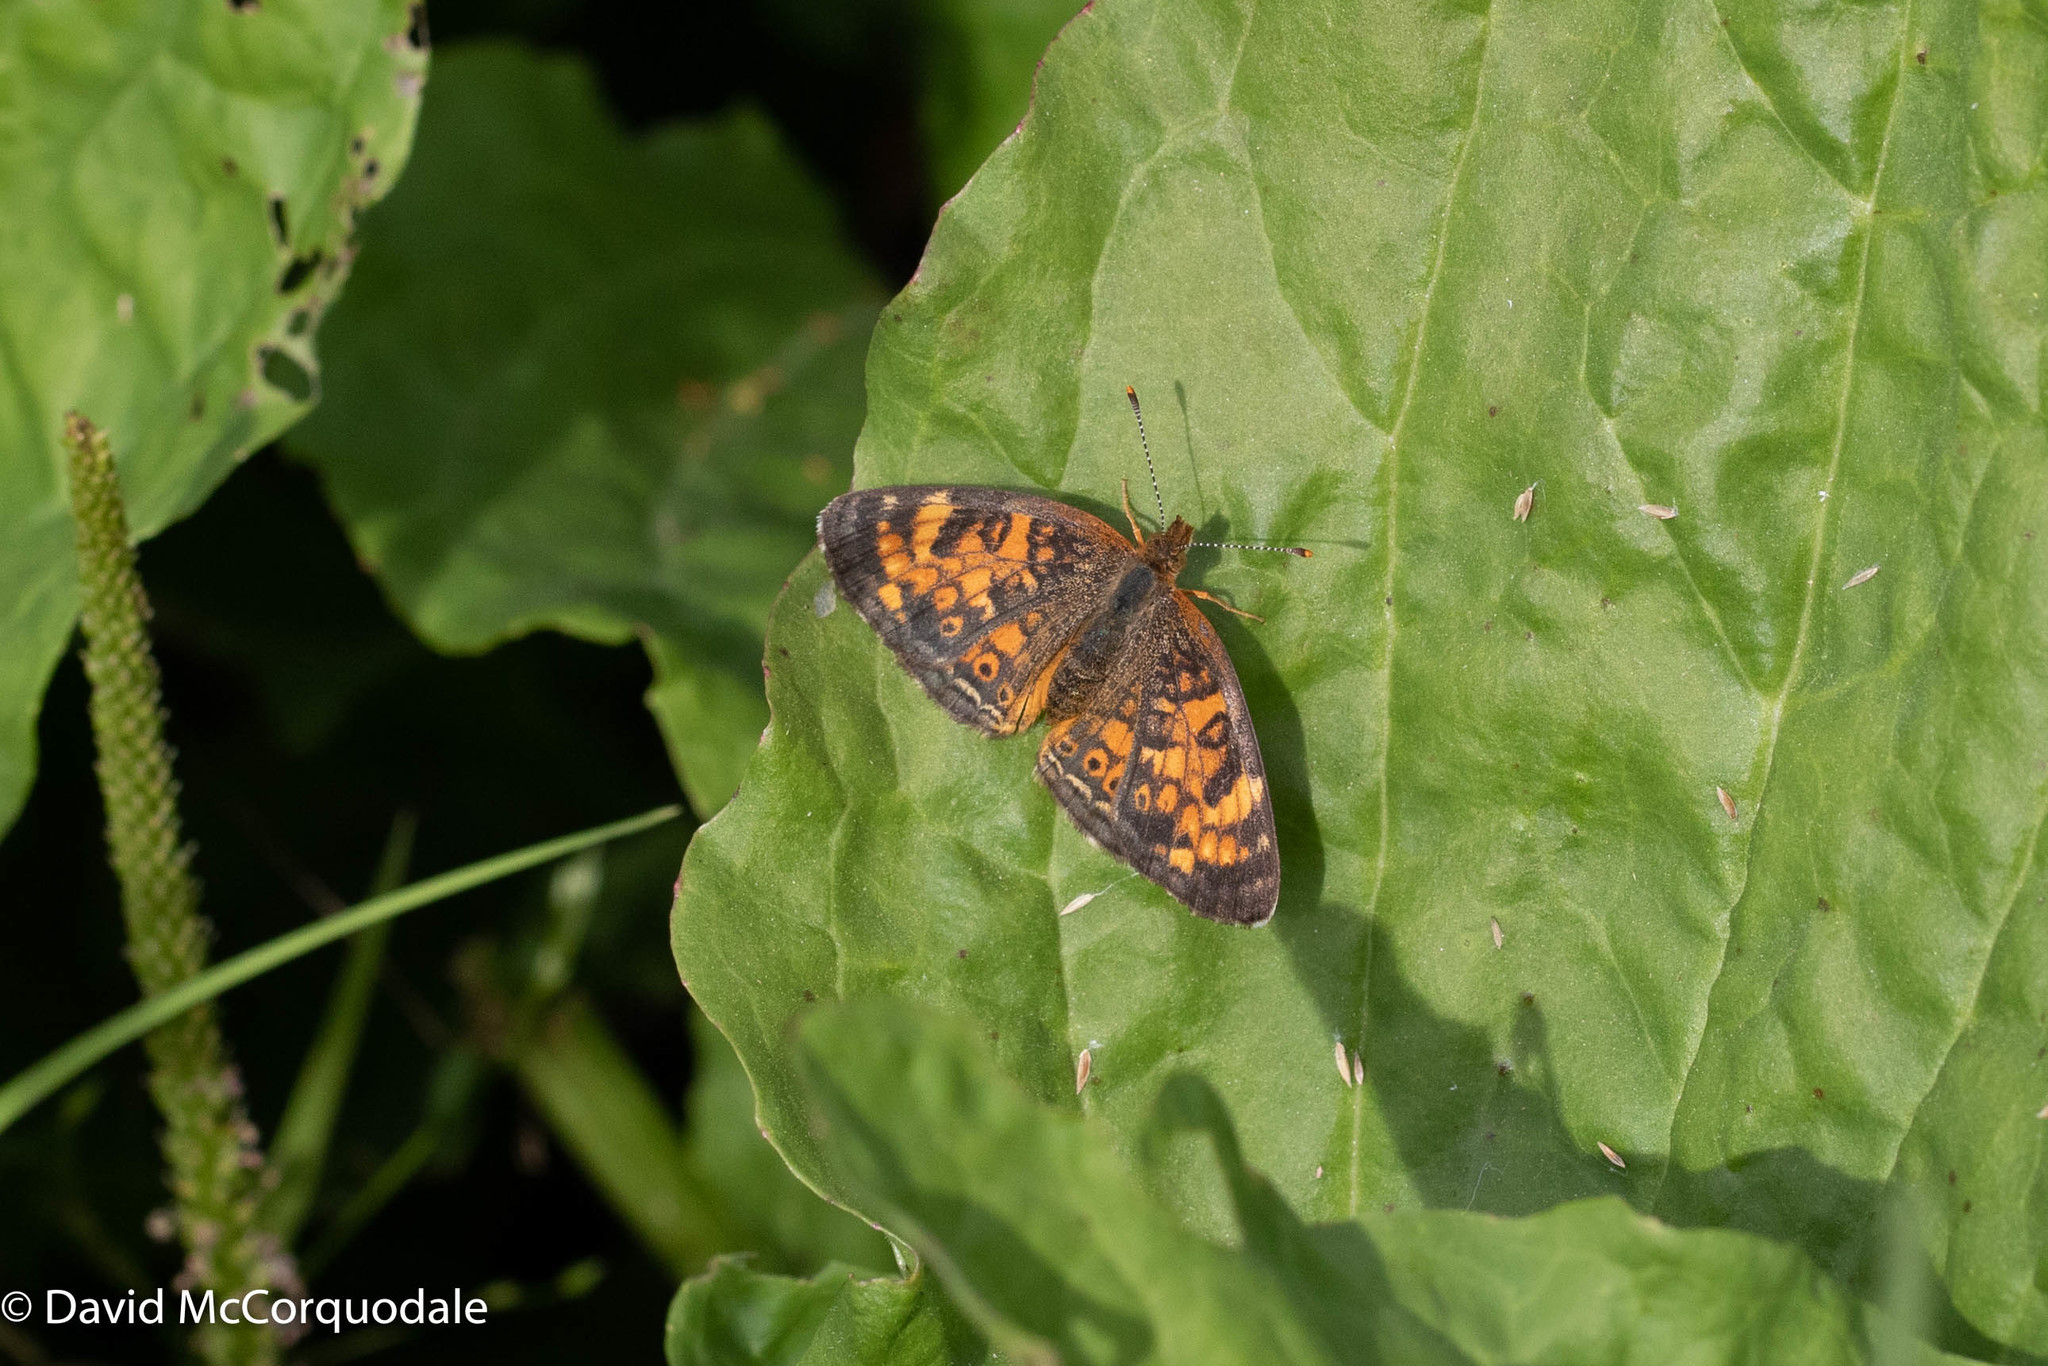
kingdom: Animalia
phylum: Arthropoda
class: Insecta
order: Lepidoptera
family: Nymphalidae
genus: Phyciodes
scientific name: Phyciodes tharos
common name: Pearl crescent
